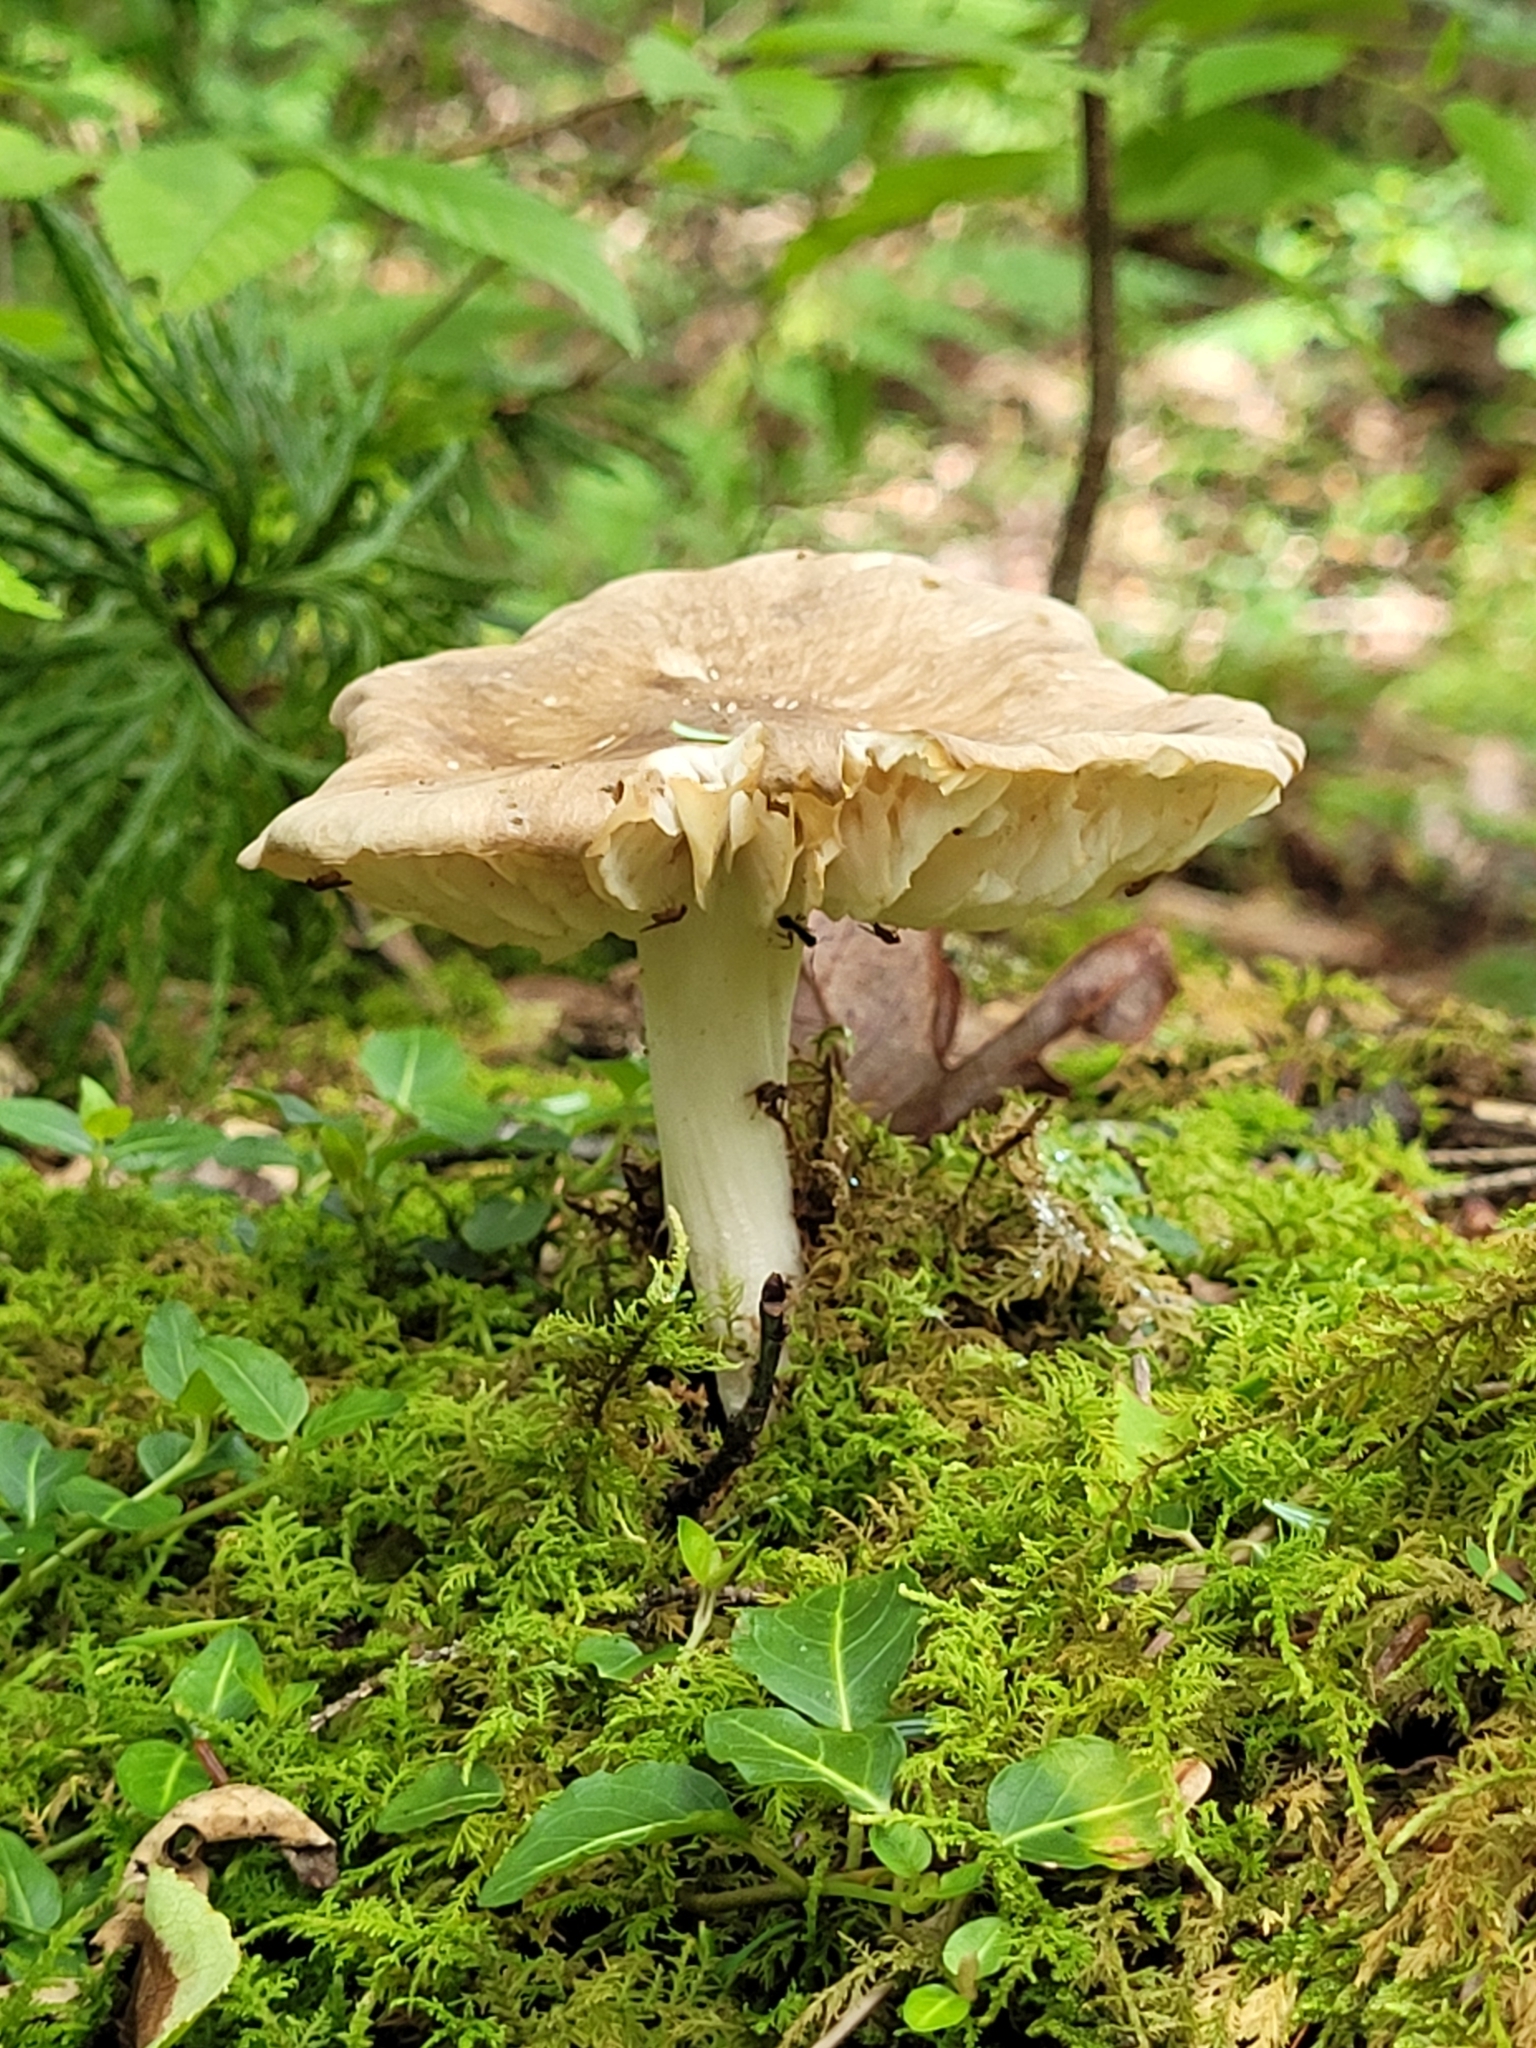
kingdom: Fungi
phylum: Basidiomycota
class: Agaricomycetes
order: Agaricales
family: Tricholomataceae
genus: Megacollybia
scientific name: Megacollybia rodmanii
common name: Eastern american platterful mushroom
